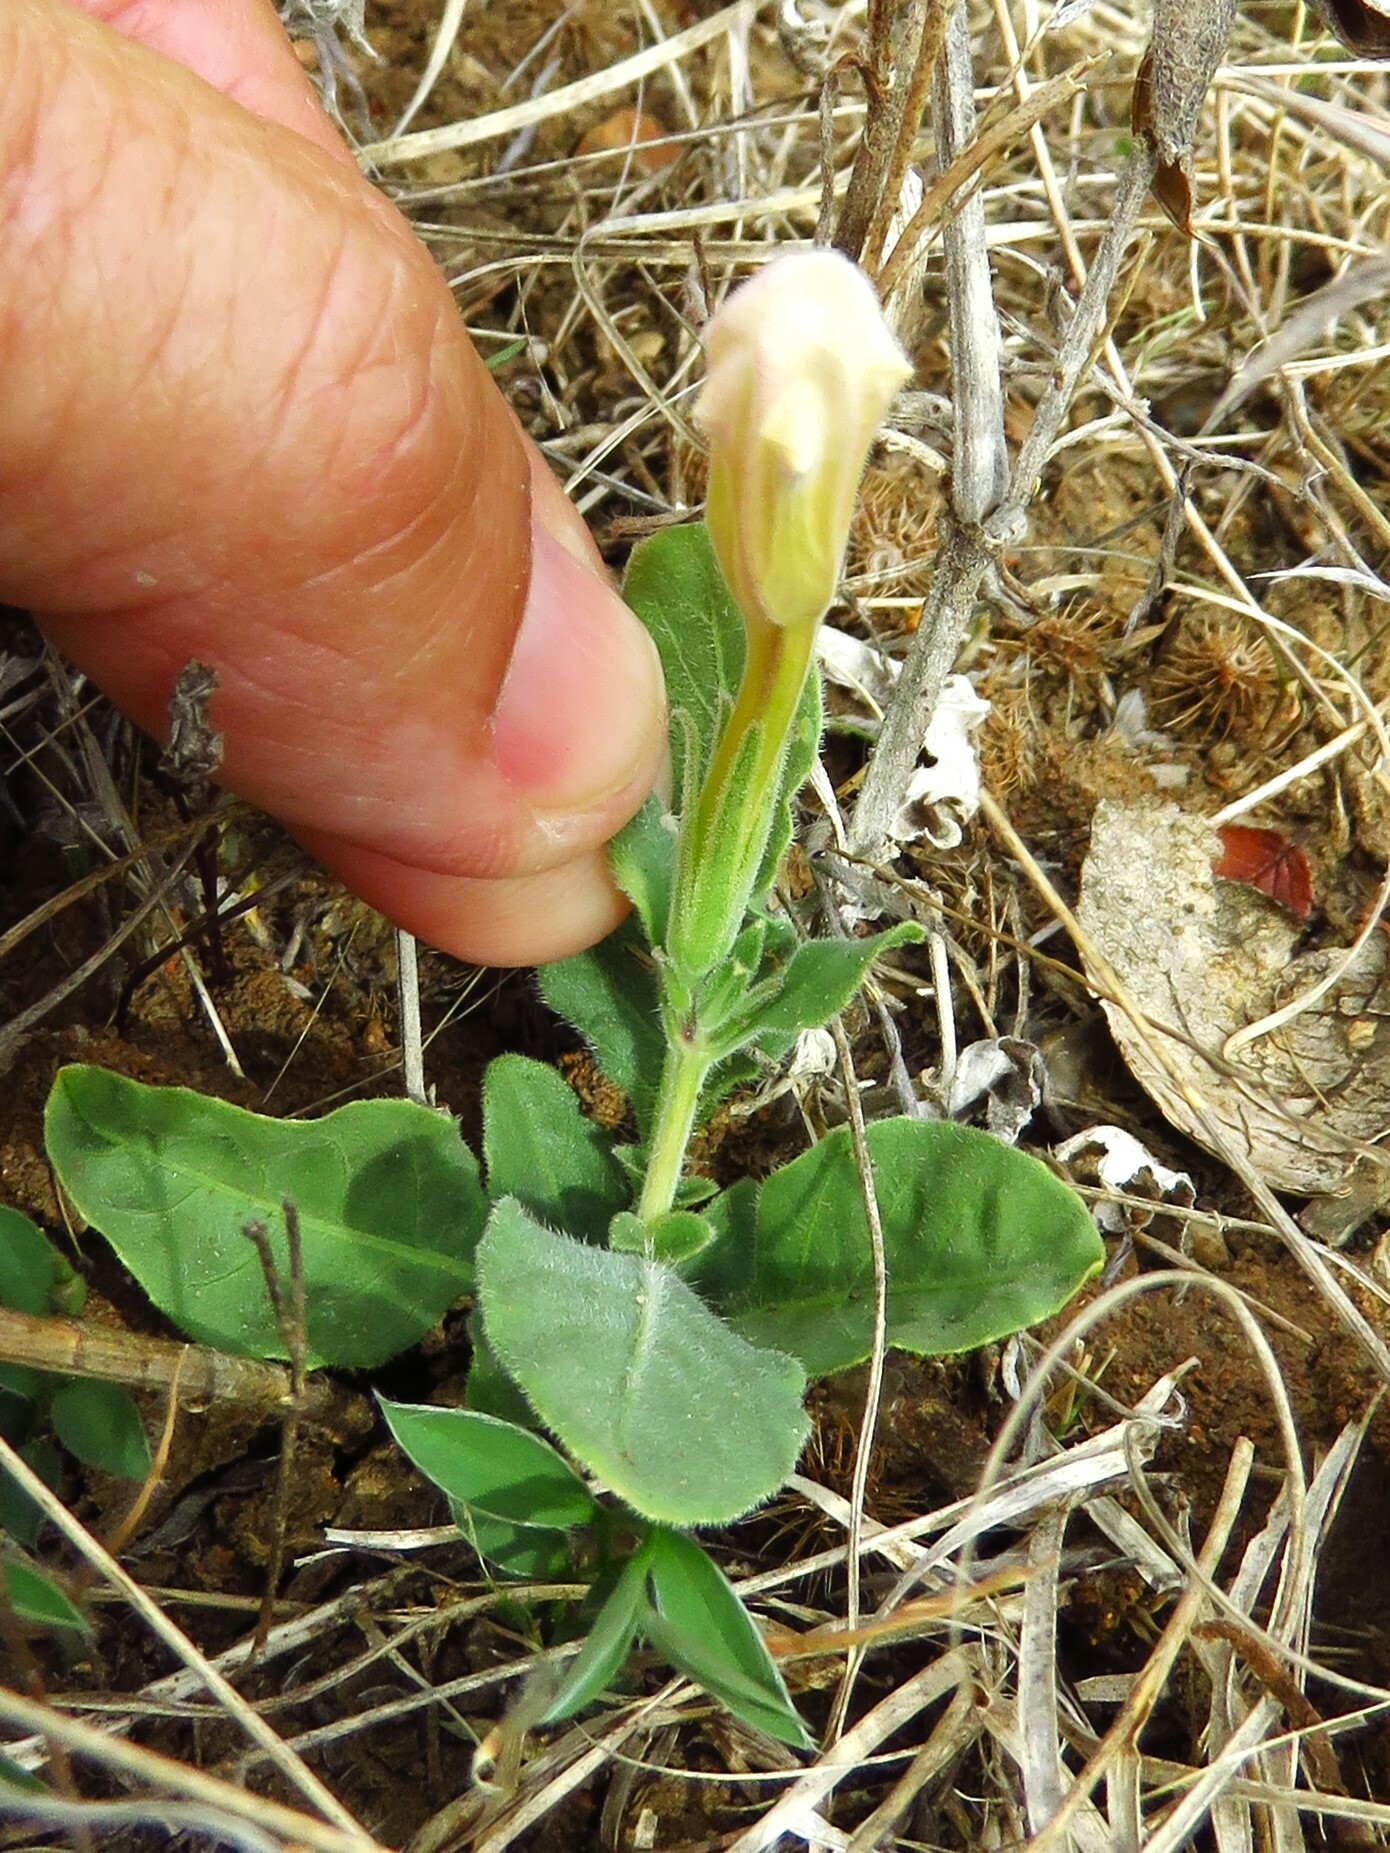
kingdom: Plantae
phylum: Tracheophyta
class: Magnoliopsida
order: Lamiales
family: Acanthaceae
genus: Ruellia
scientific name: Ruellia metziae
